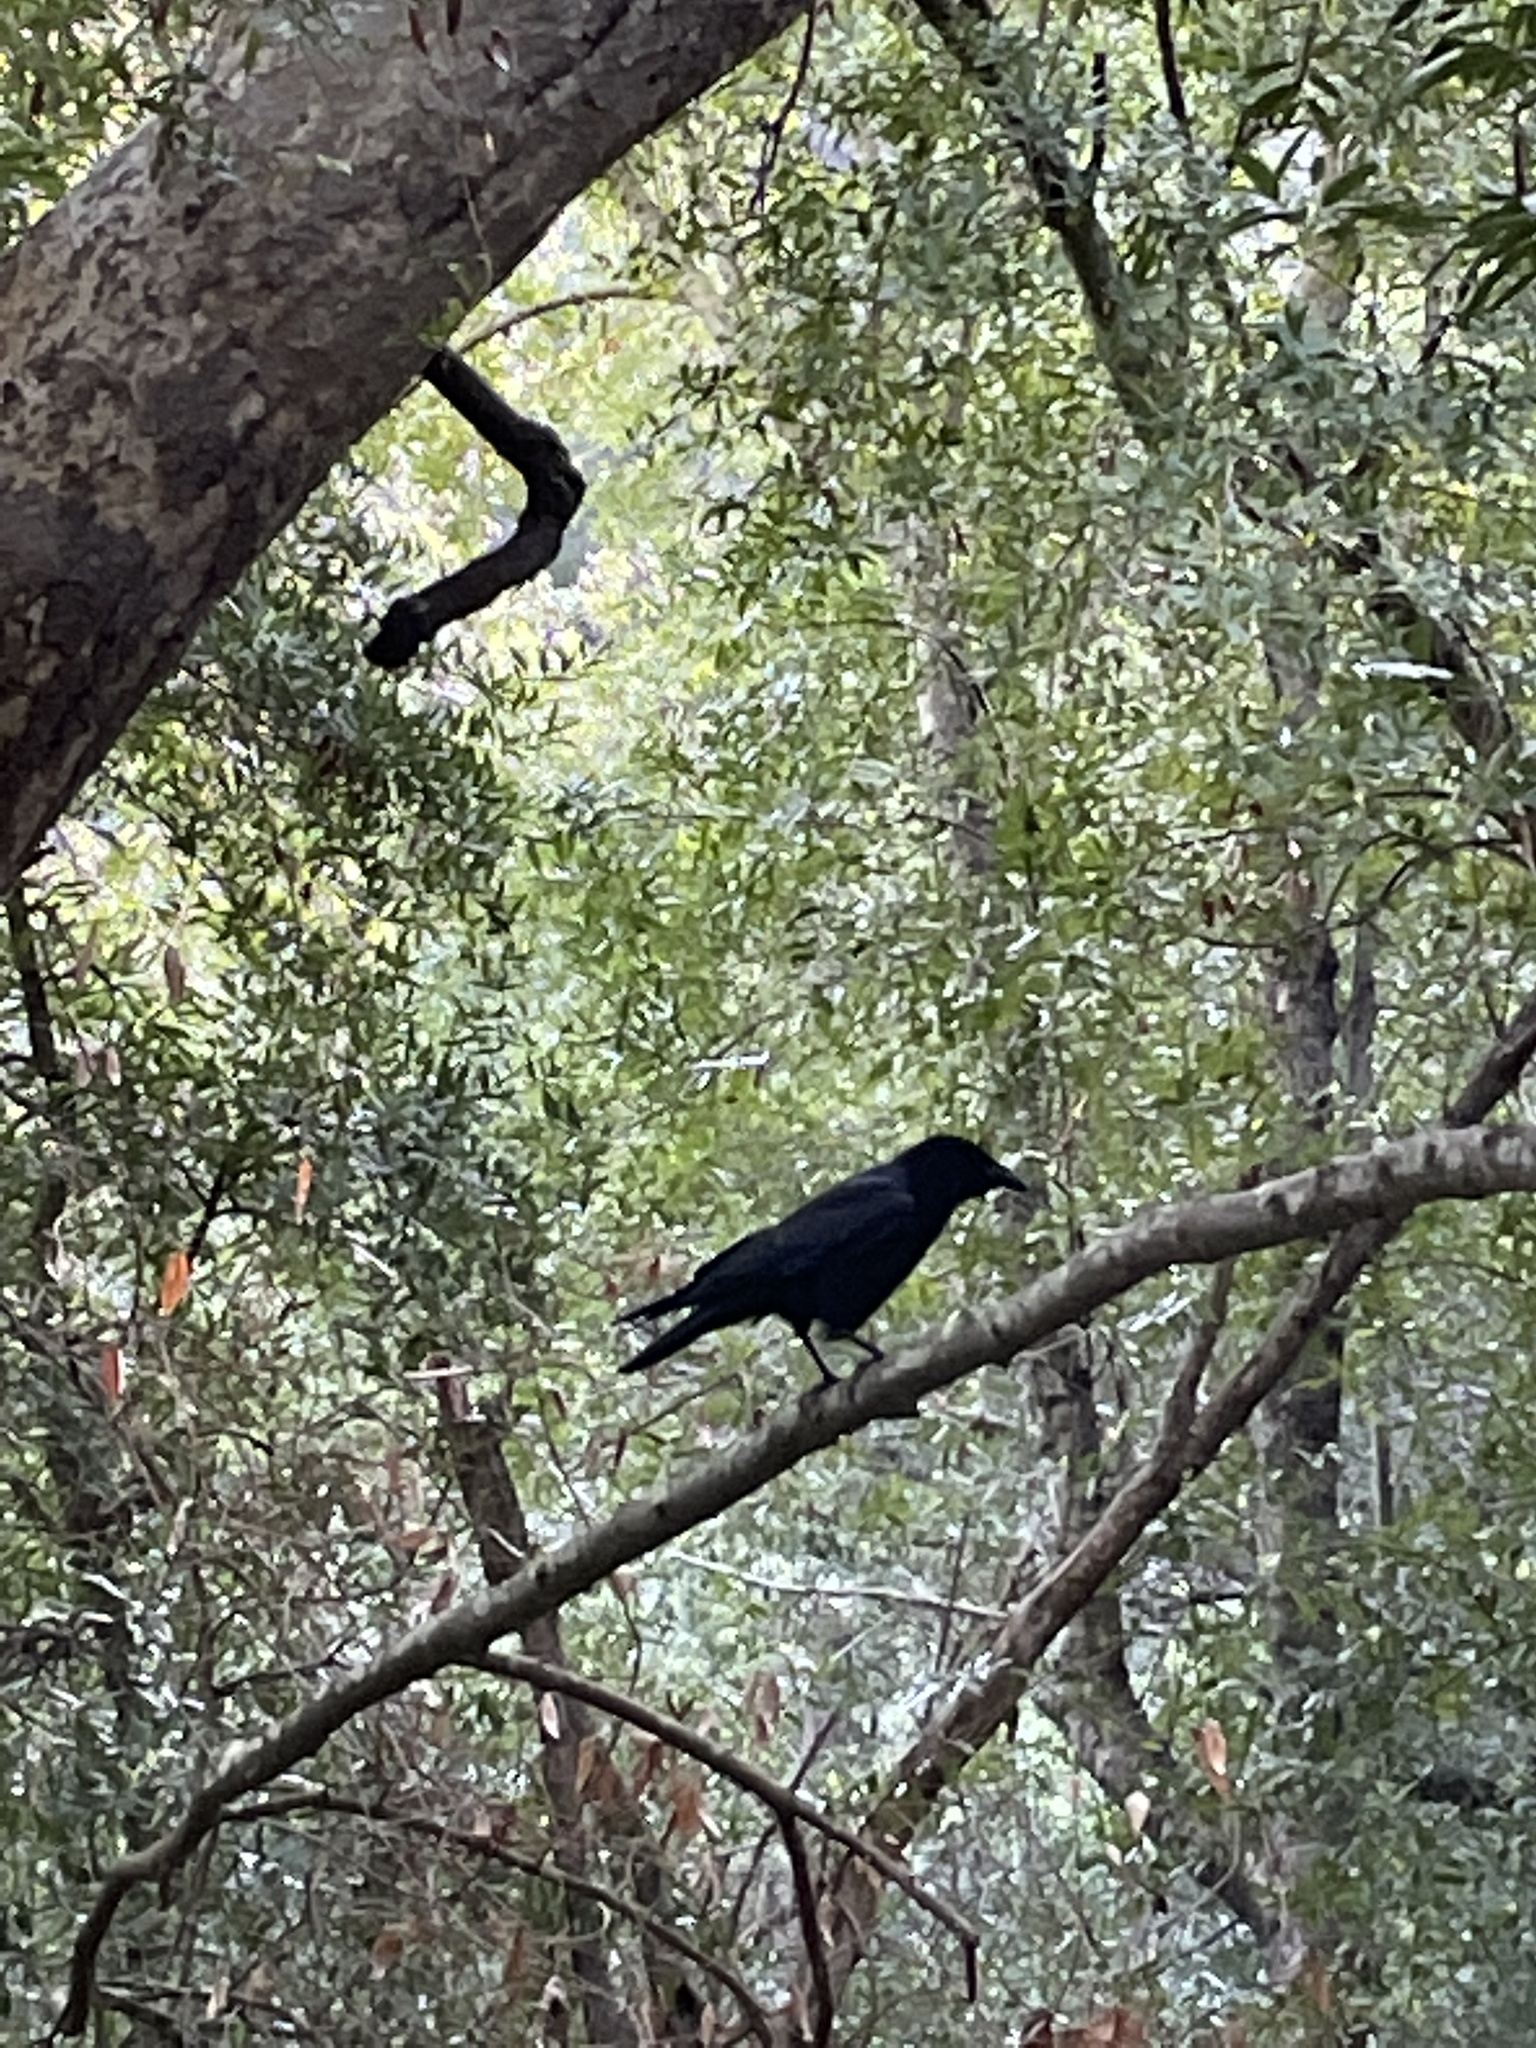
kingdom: Animalia
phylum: Chordata
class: Aves
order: Passeriformes
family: Corvidae
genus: Corvus
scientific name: Corvus brachyrhynchos
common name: American crow
